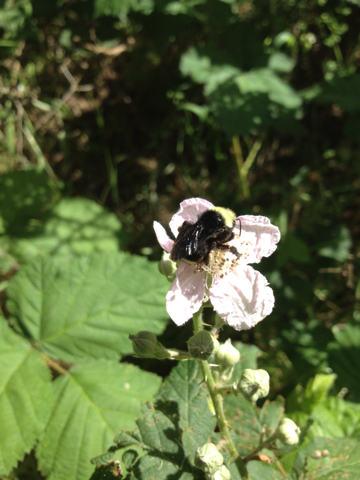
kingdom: Animalia
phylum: Arthropoda
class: Insecta
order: Hymenoptera
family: Apidae
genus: Pyrobombus
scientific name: Pyrobombus
